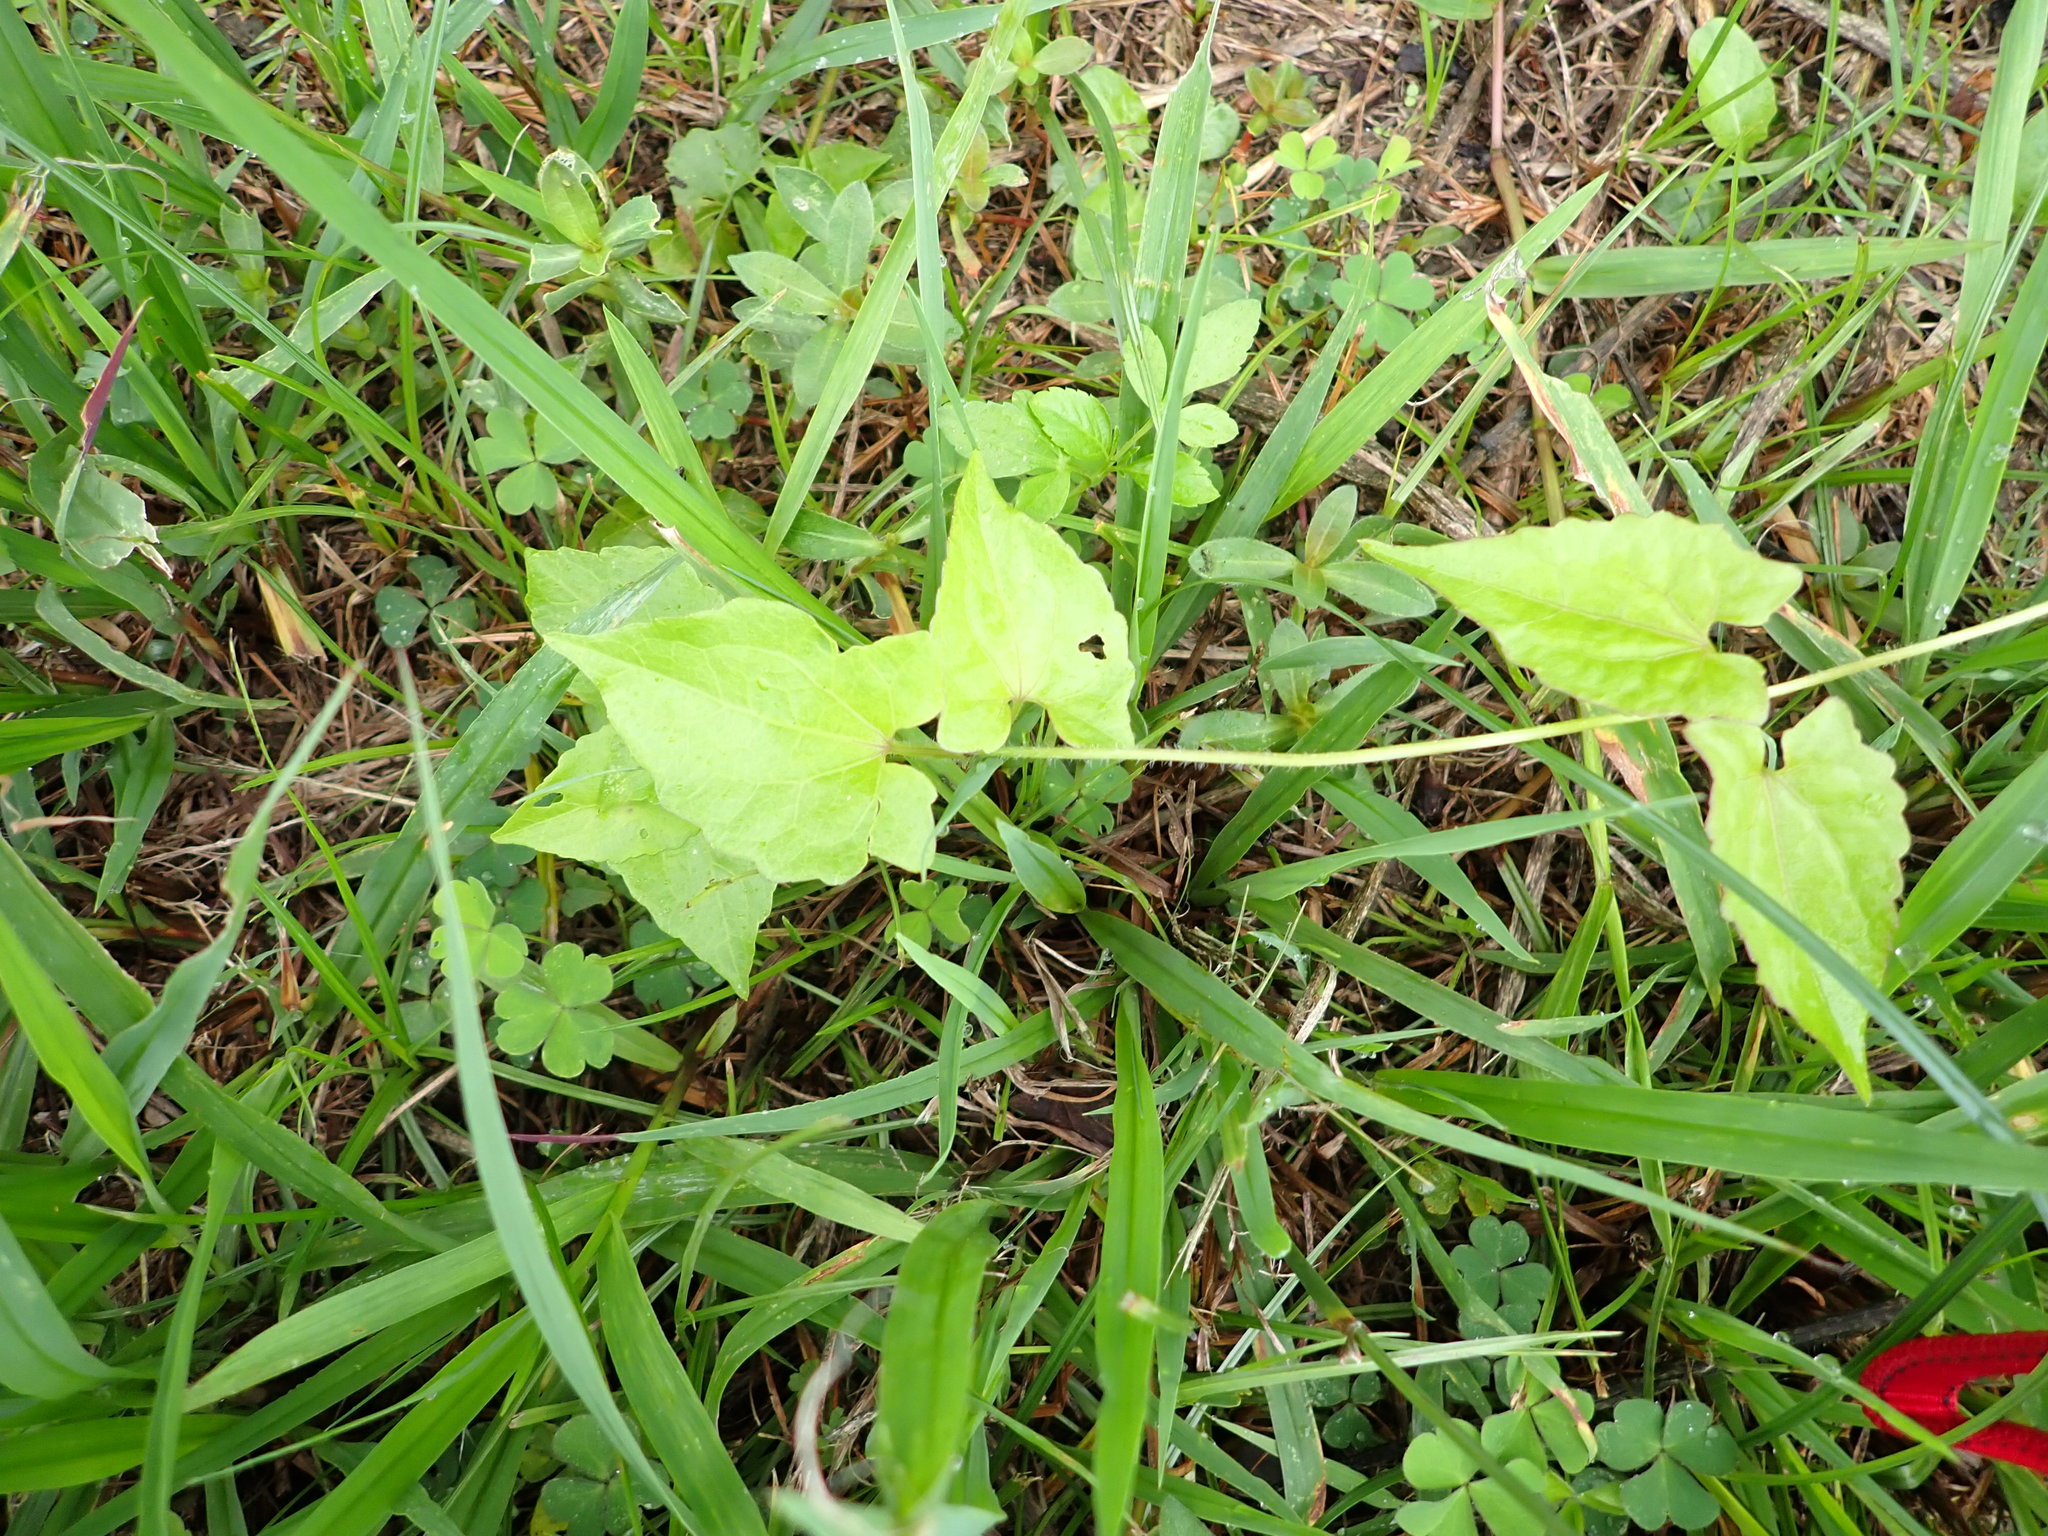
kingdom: Plantae
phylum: Tracheophyta
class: Magnoliopsida
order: Asterales
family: Asteraceae
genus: Mikania
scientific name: Mikania micrantha
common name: Mile-a-minute
